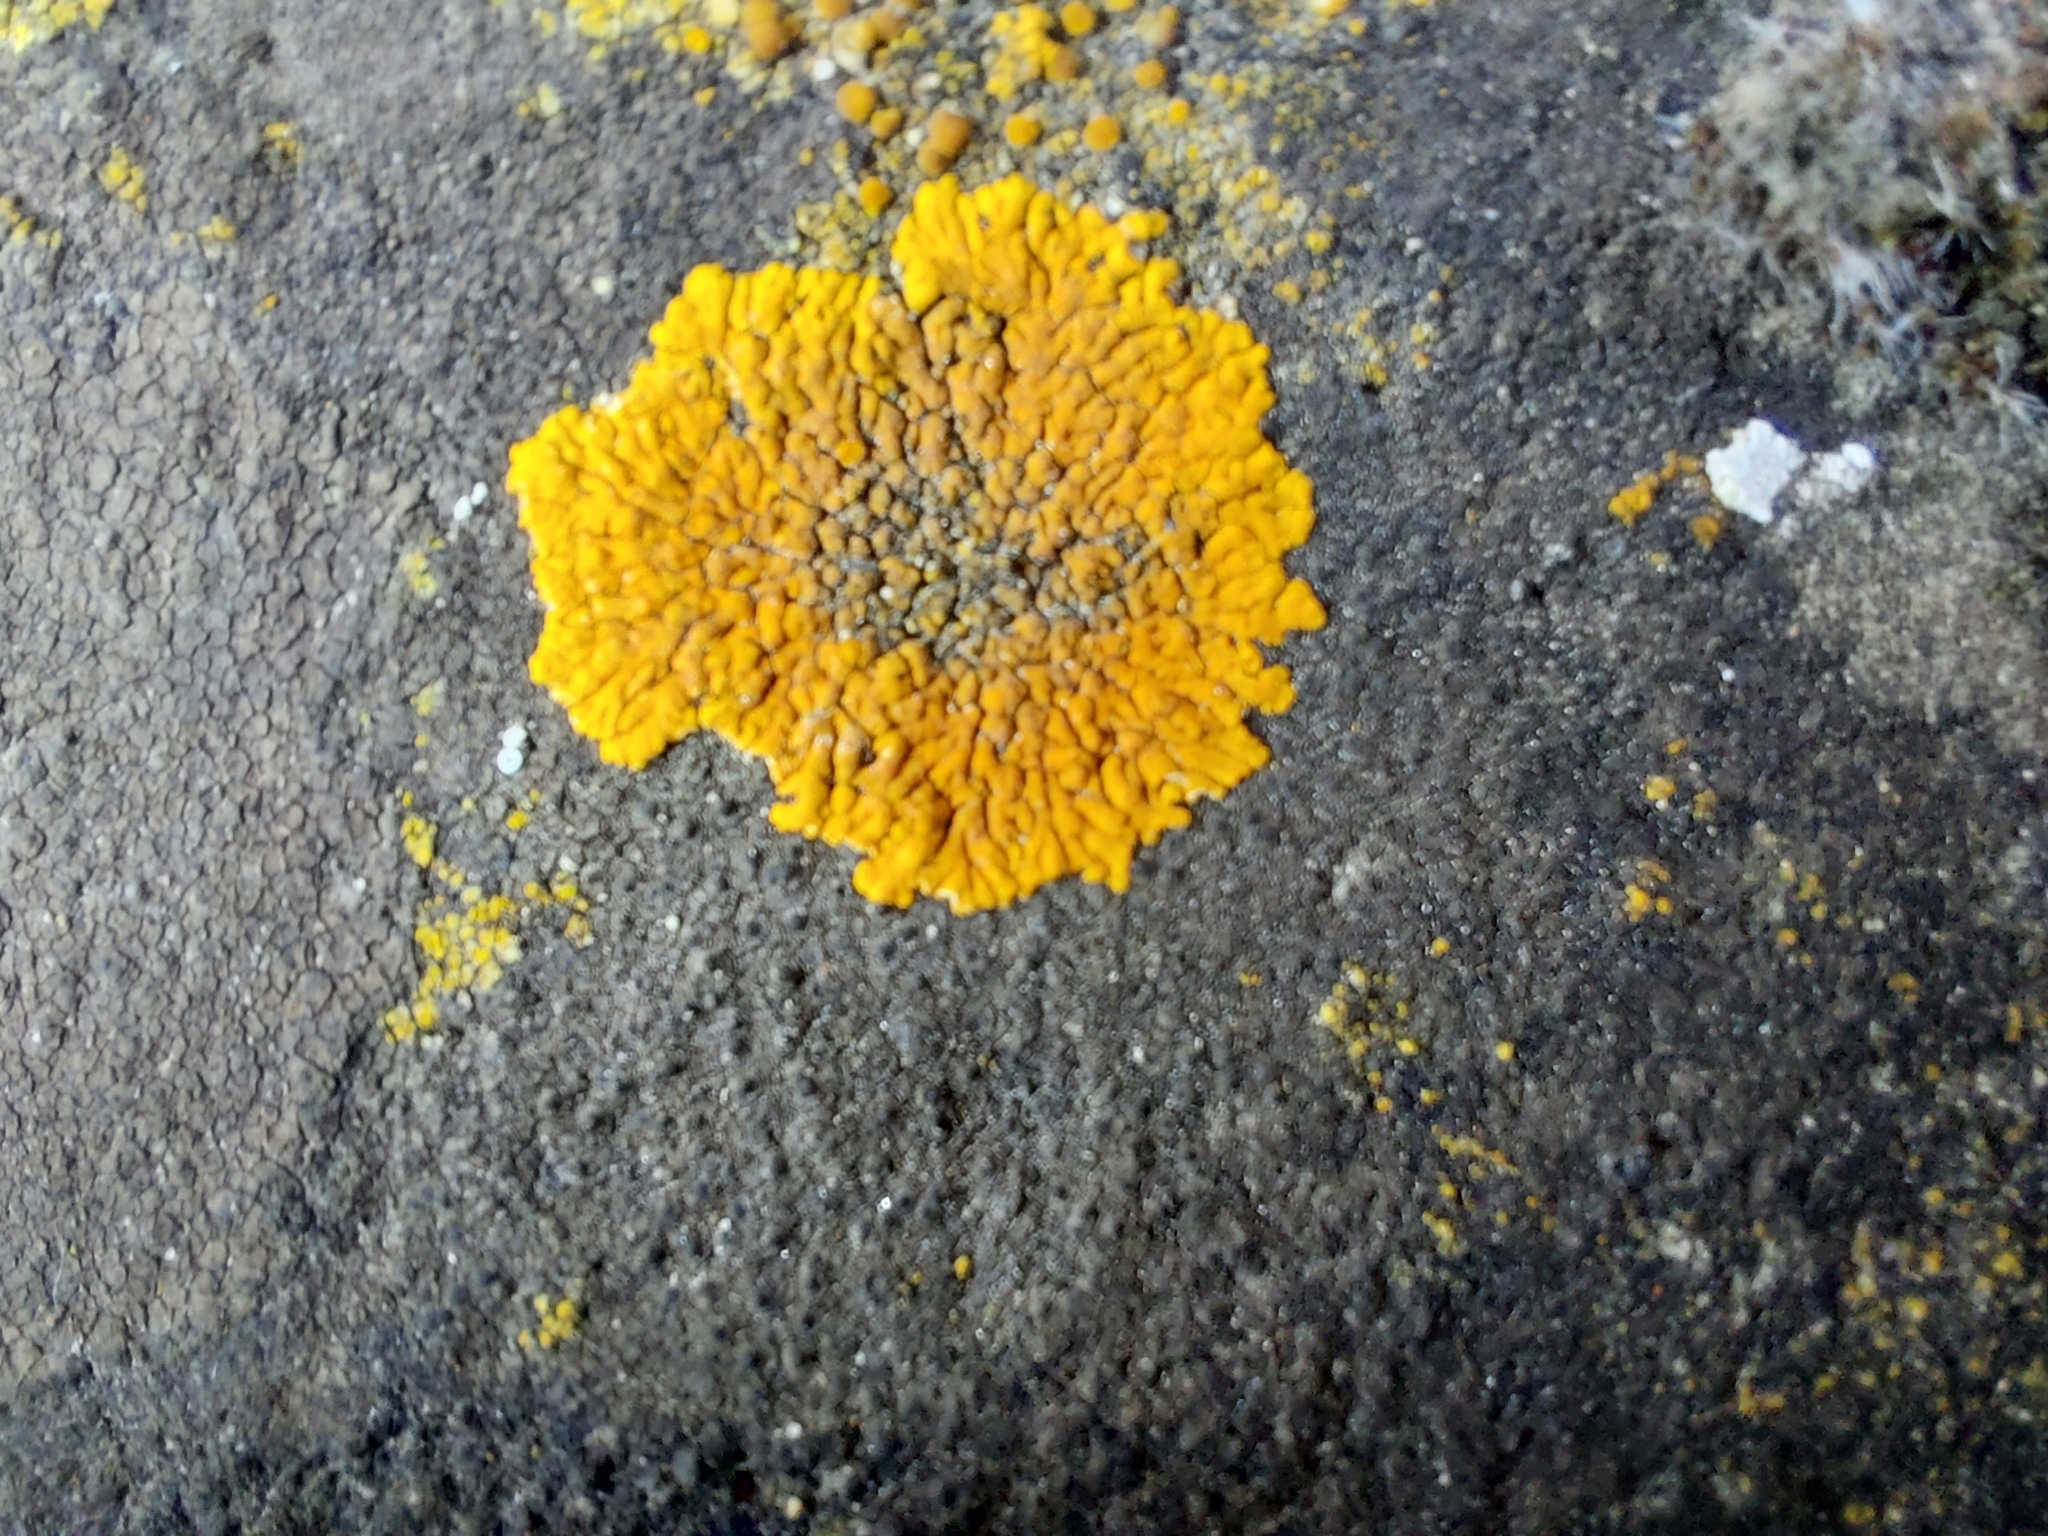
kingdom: Fungi
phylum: Ascomycota
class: Lecanoromycetes
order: Teloschistales
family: Teloschistaceae
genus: Variospora
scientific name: Variospora flavescens
